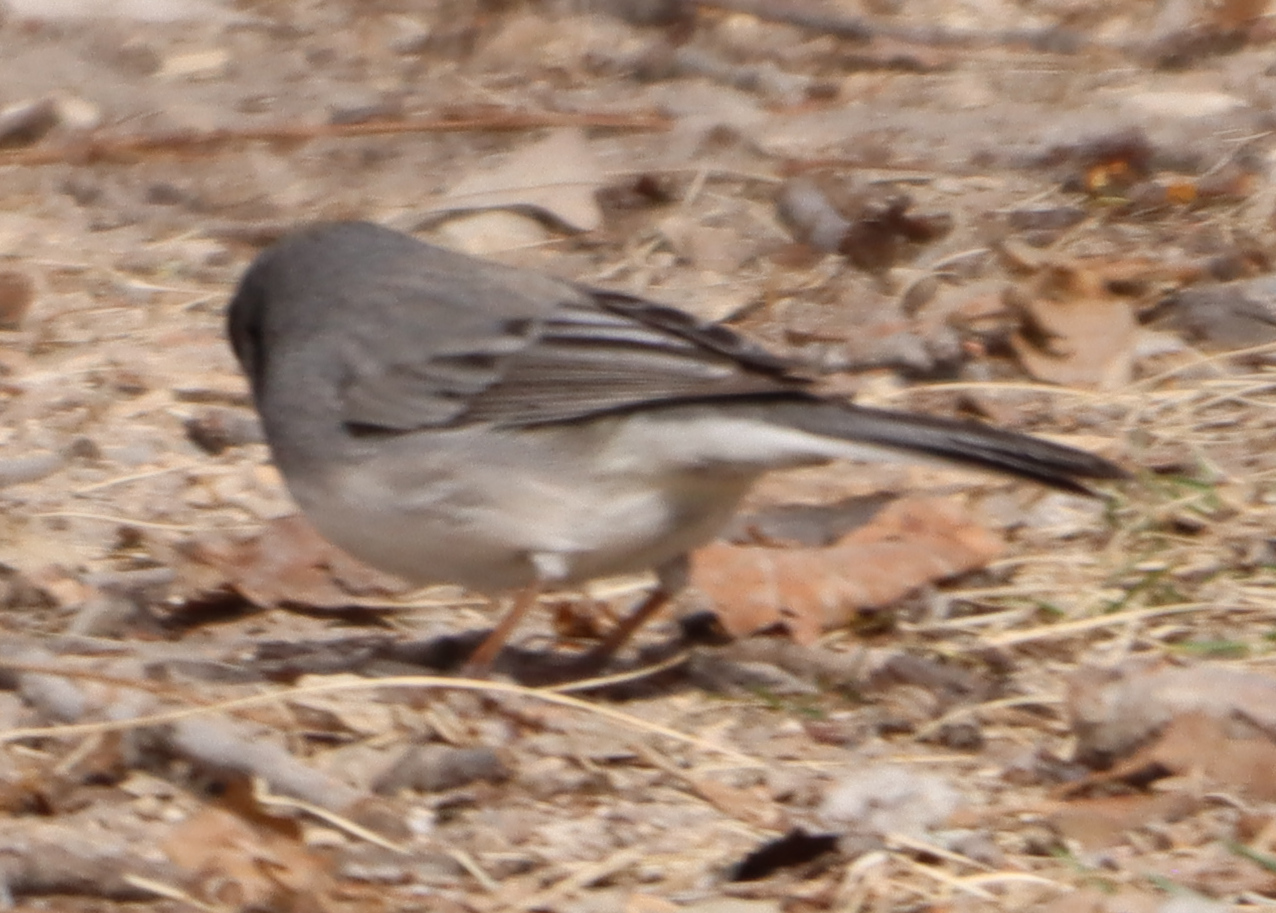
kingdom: Animalia
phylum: Chordata
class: Aves
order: Passeriformes
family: Passerellidae
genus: Junco
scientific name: Junco hyemalis
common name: Dark-eyed junco
